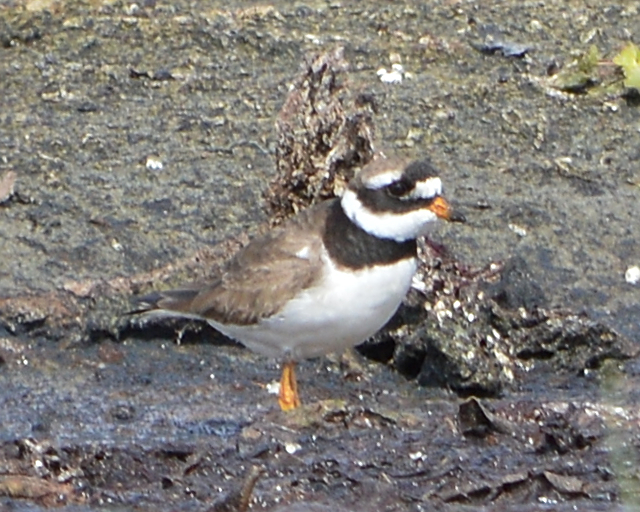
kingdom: Animalia
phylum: Chordata
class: Aves
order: Charadriiformes
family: Charadriidae
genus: Charadrius
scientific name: Charadrius hiaticula
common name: Common ringed plover
